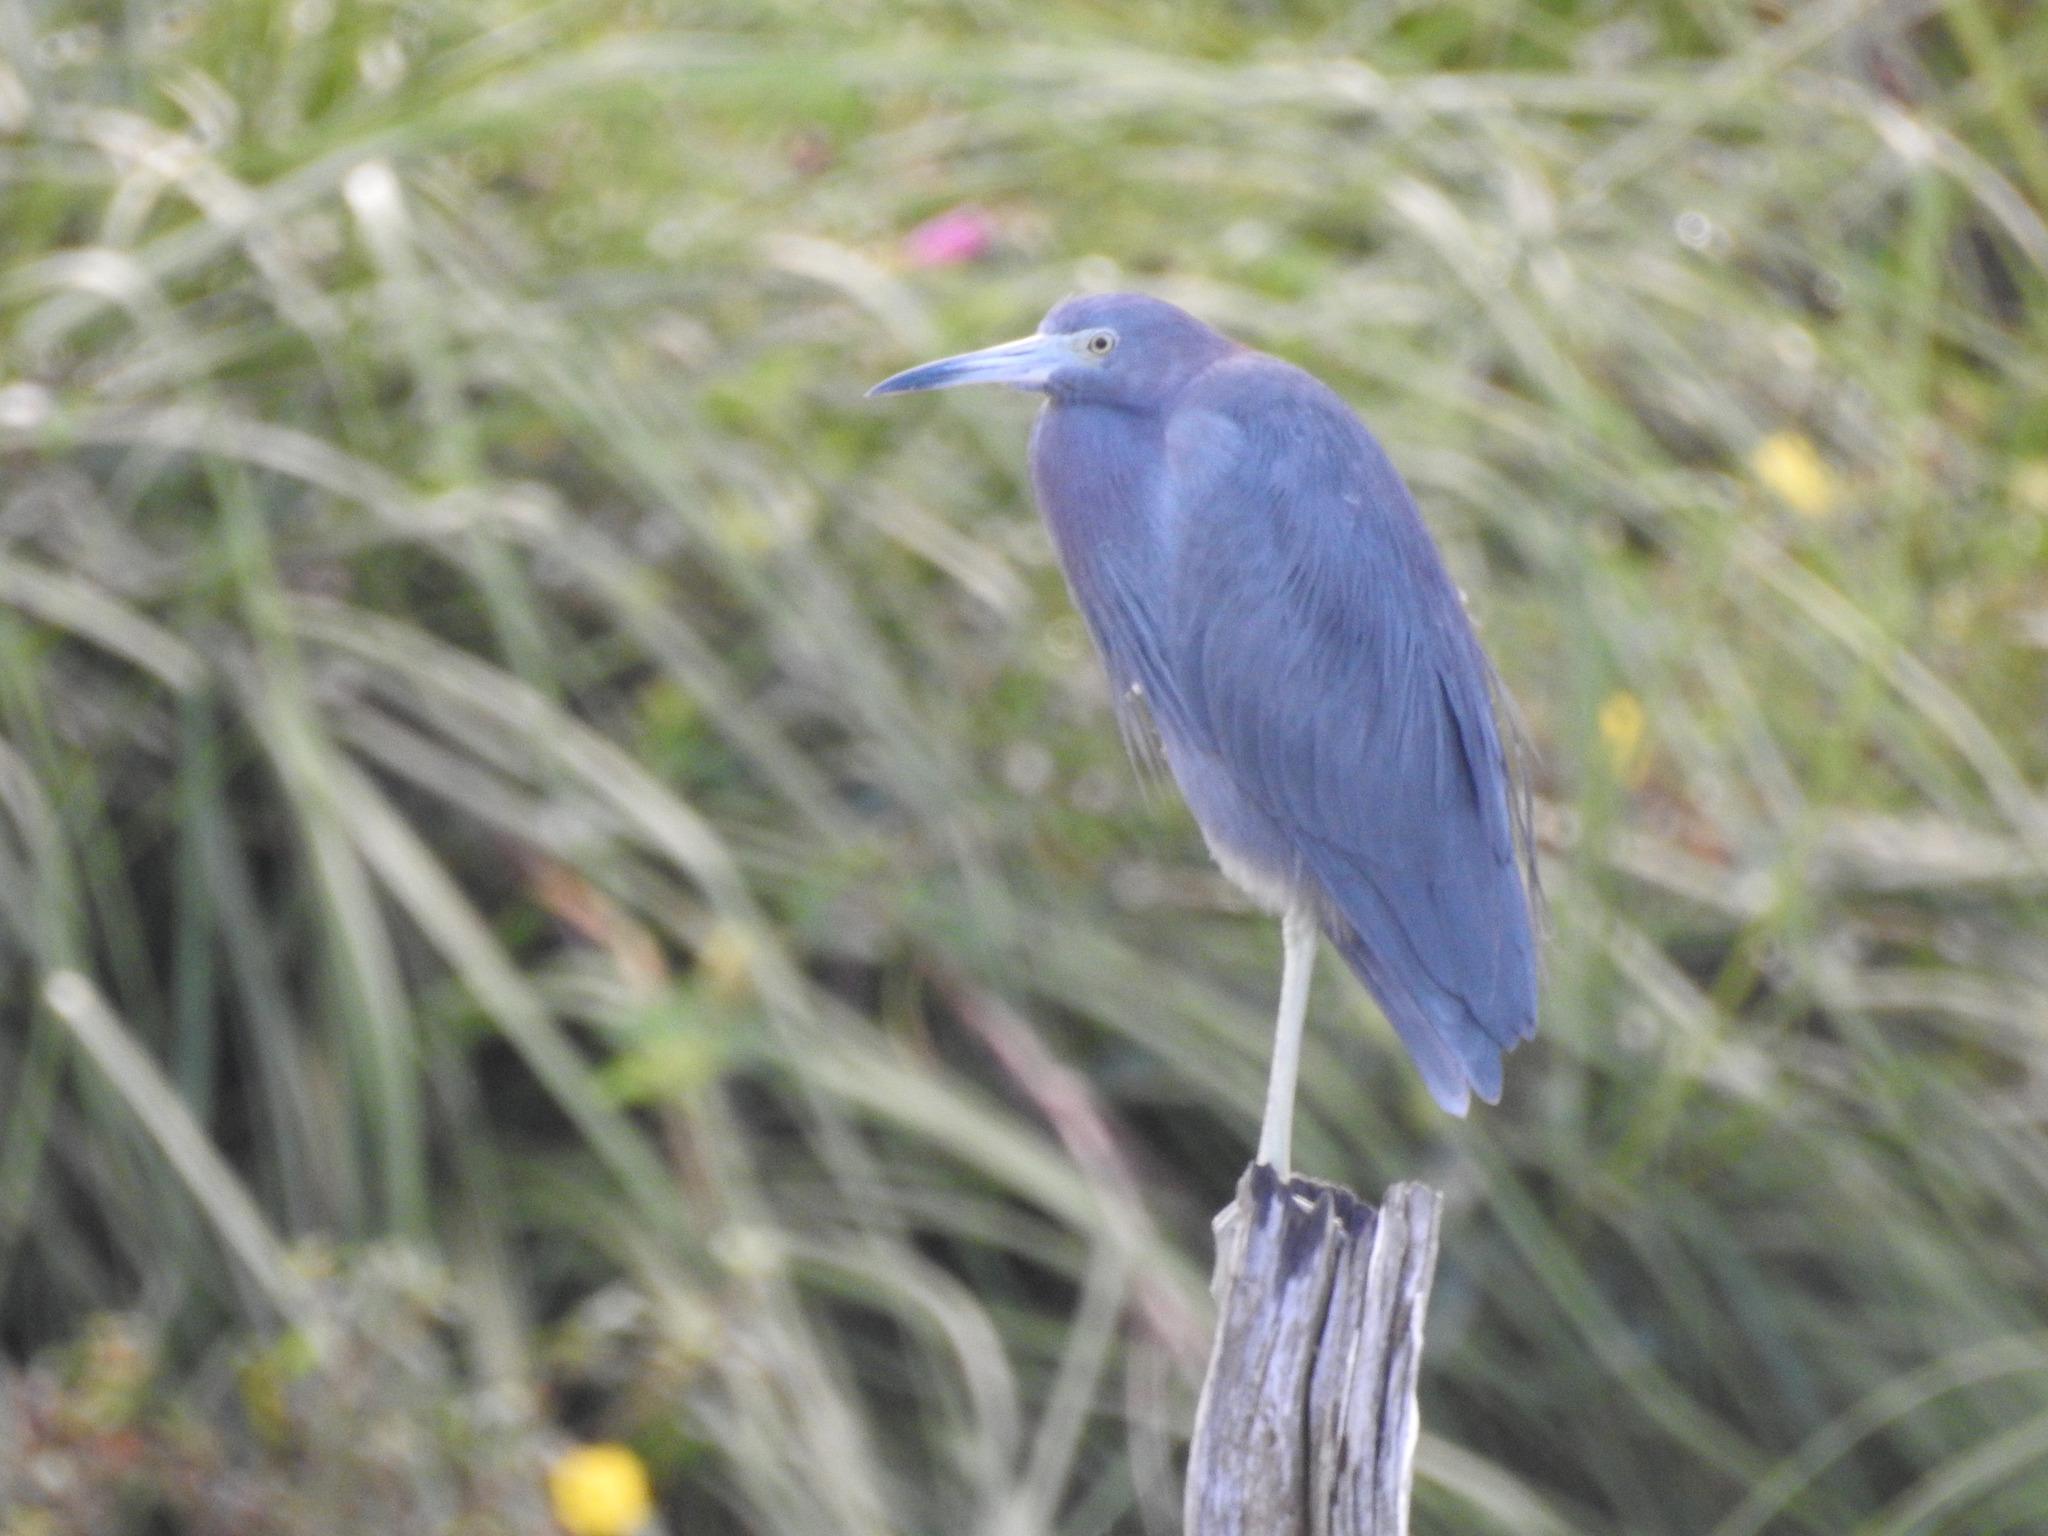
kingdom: Animalia
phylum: Chordata
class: Aves
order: Pelecaniformes
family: Ardeidae
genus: Egretta
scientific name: Egretta caerulea
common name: Little blue heron
